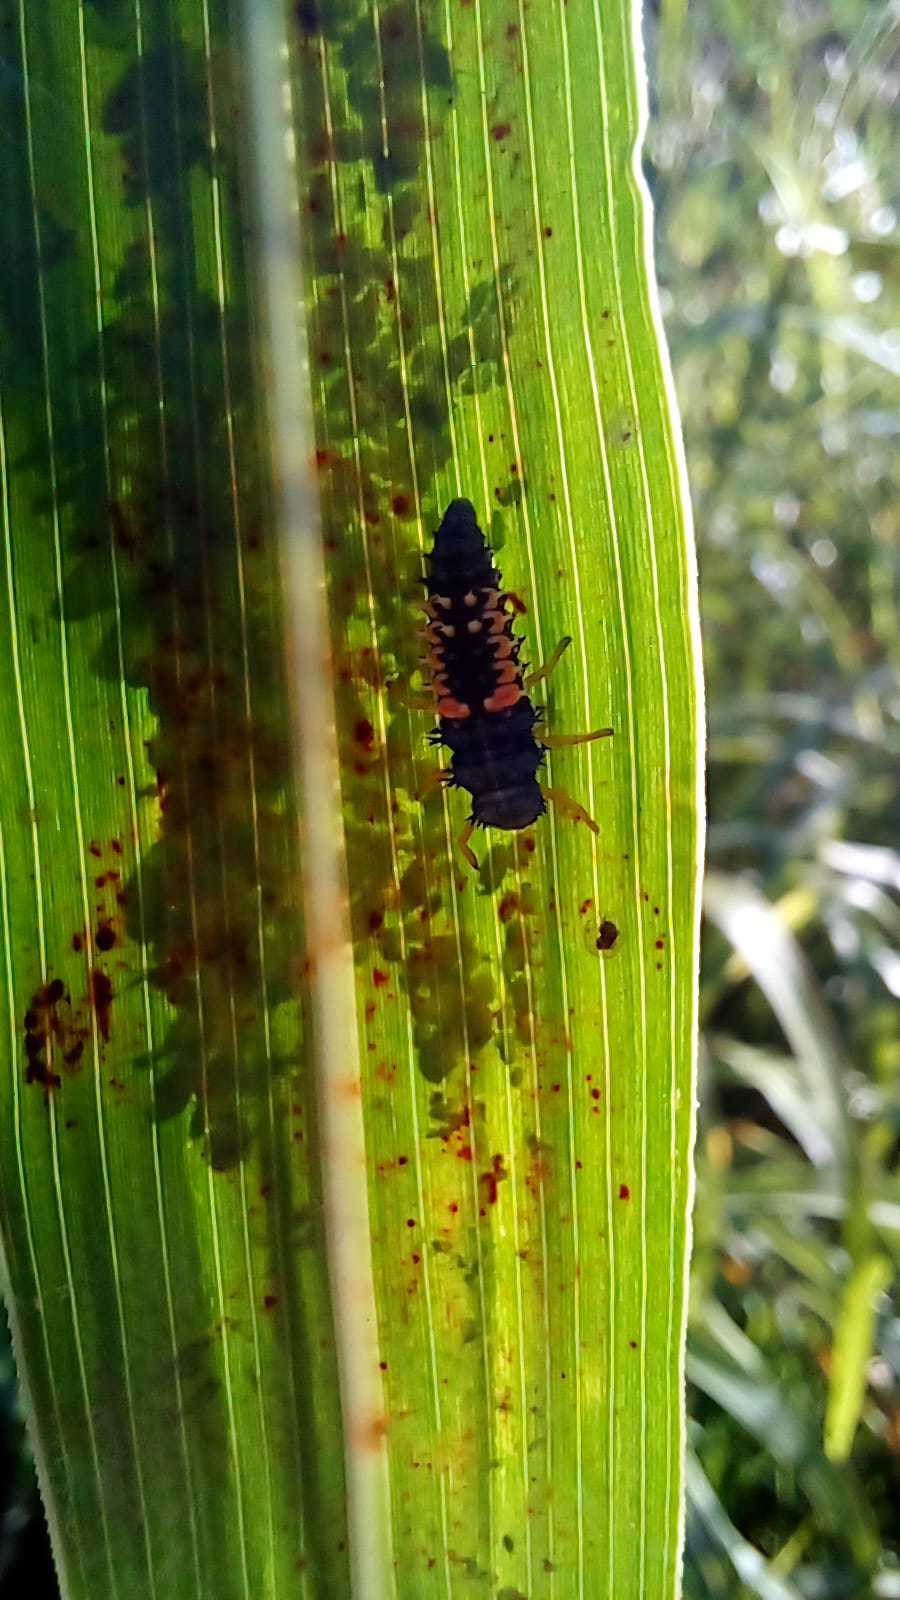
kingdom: Animalia
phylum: Arthropoda
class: Insecta
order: Coleoptera
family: Coccinellidae
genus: Harmonia
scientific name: Harmonia axyridis
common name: Harlequin ladybird
